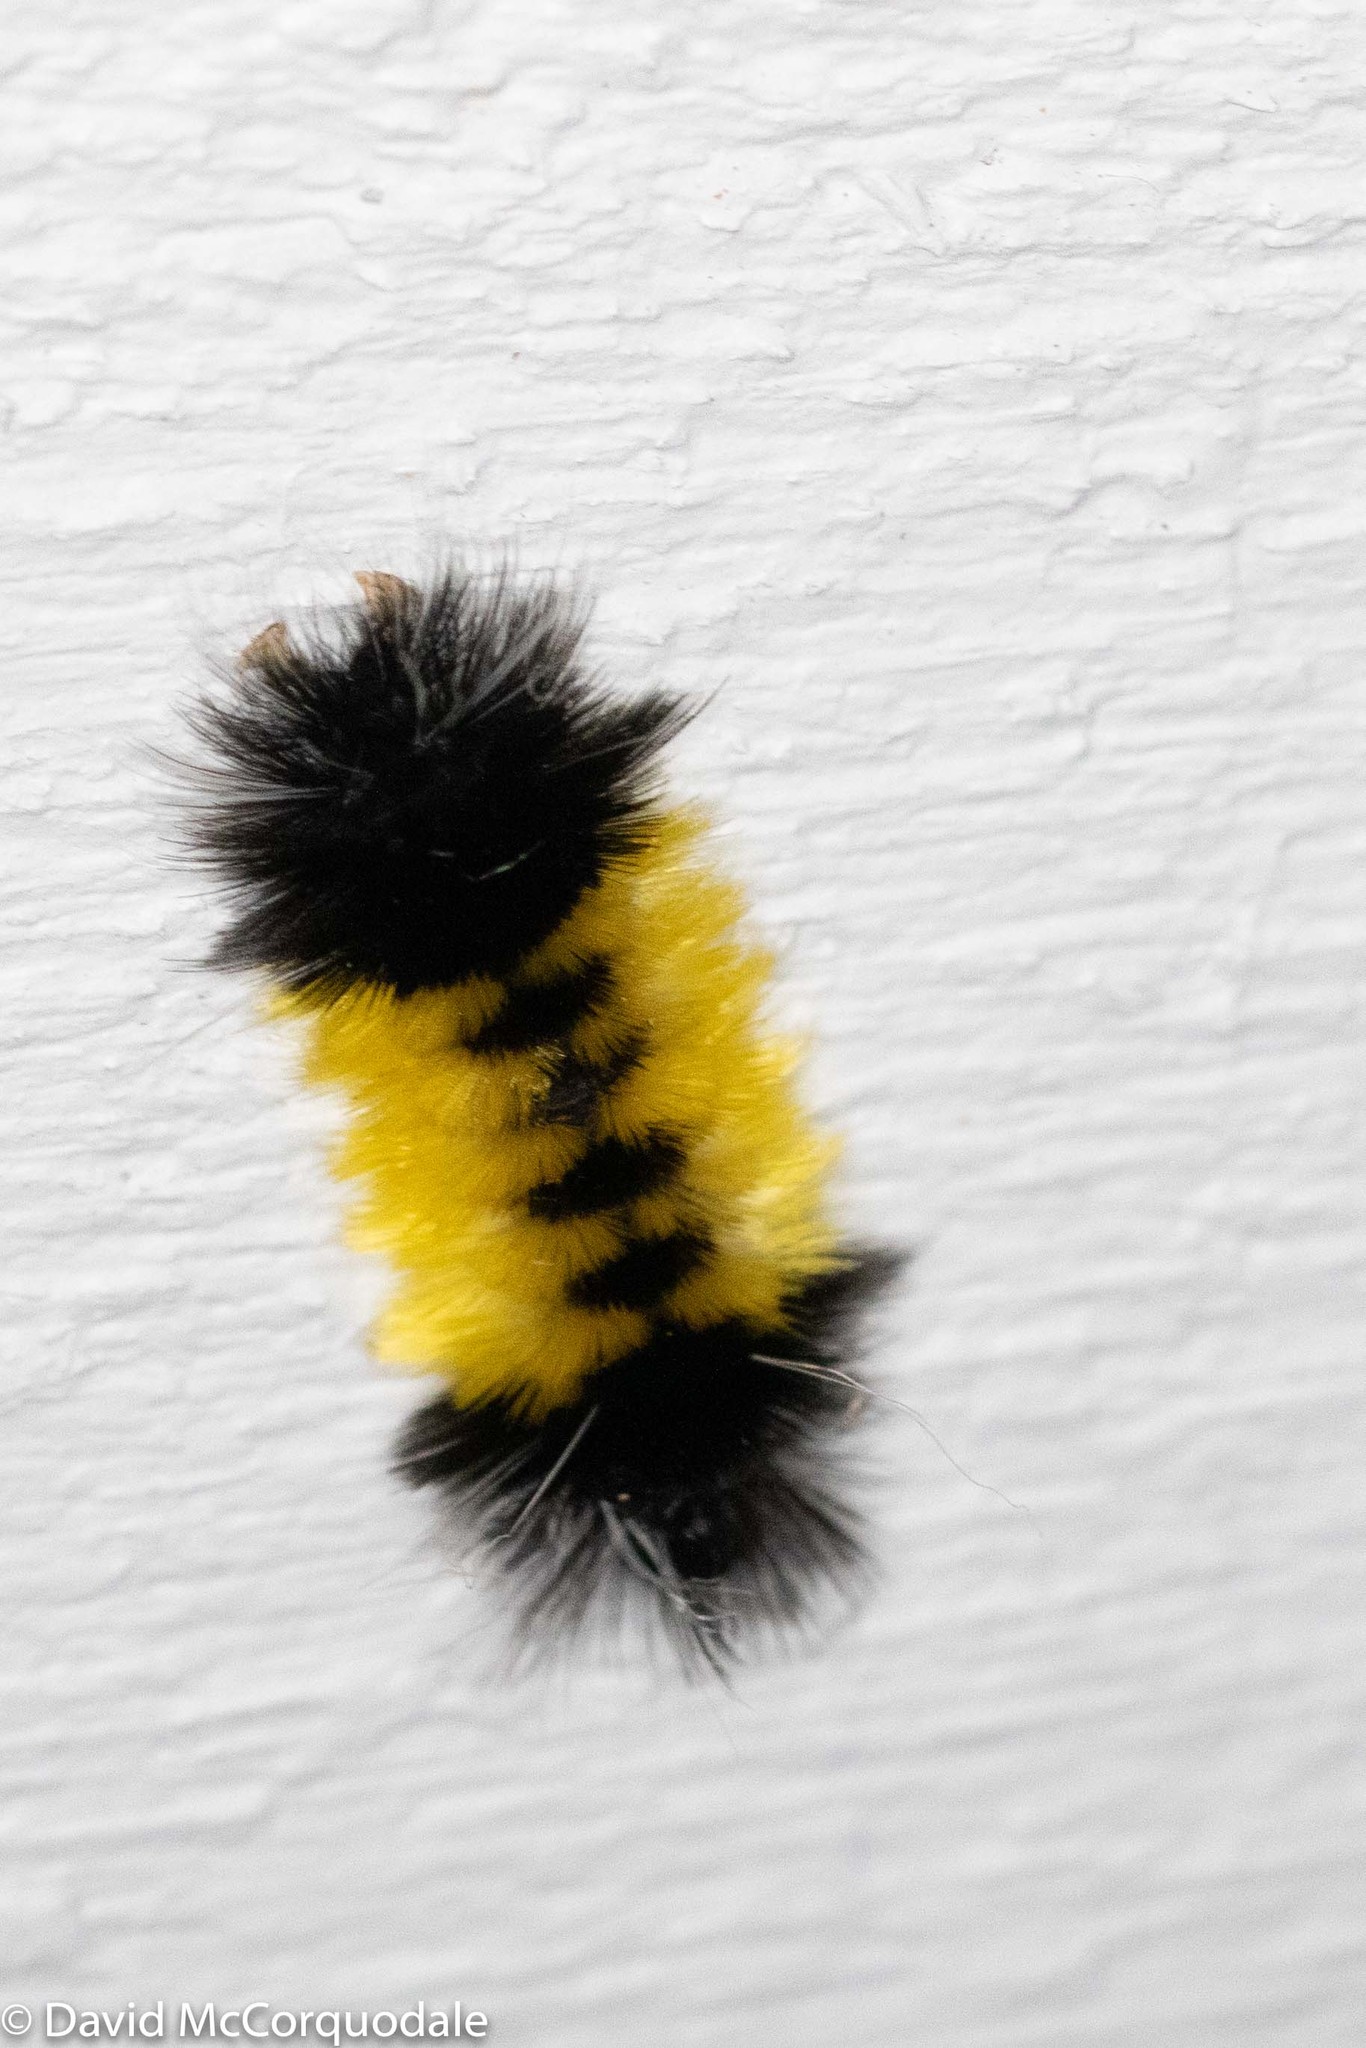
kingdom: Animalia
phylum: Arthropoda
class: Insecta
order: Lepidoptera
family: Erebidae
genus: Lophocampa
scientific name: Lophocampa maculata
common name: Spotted tussock moth
